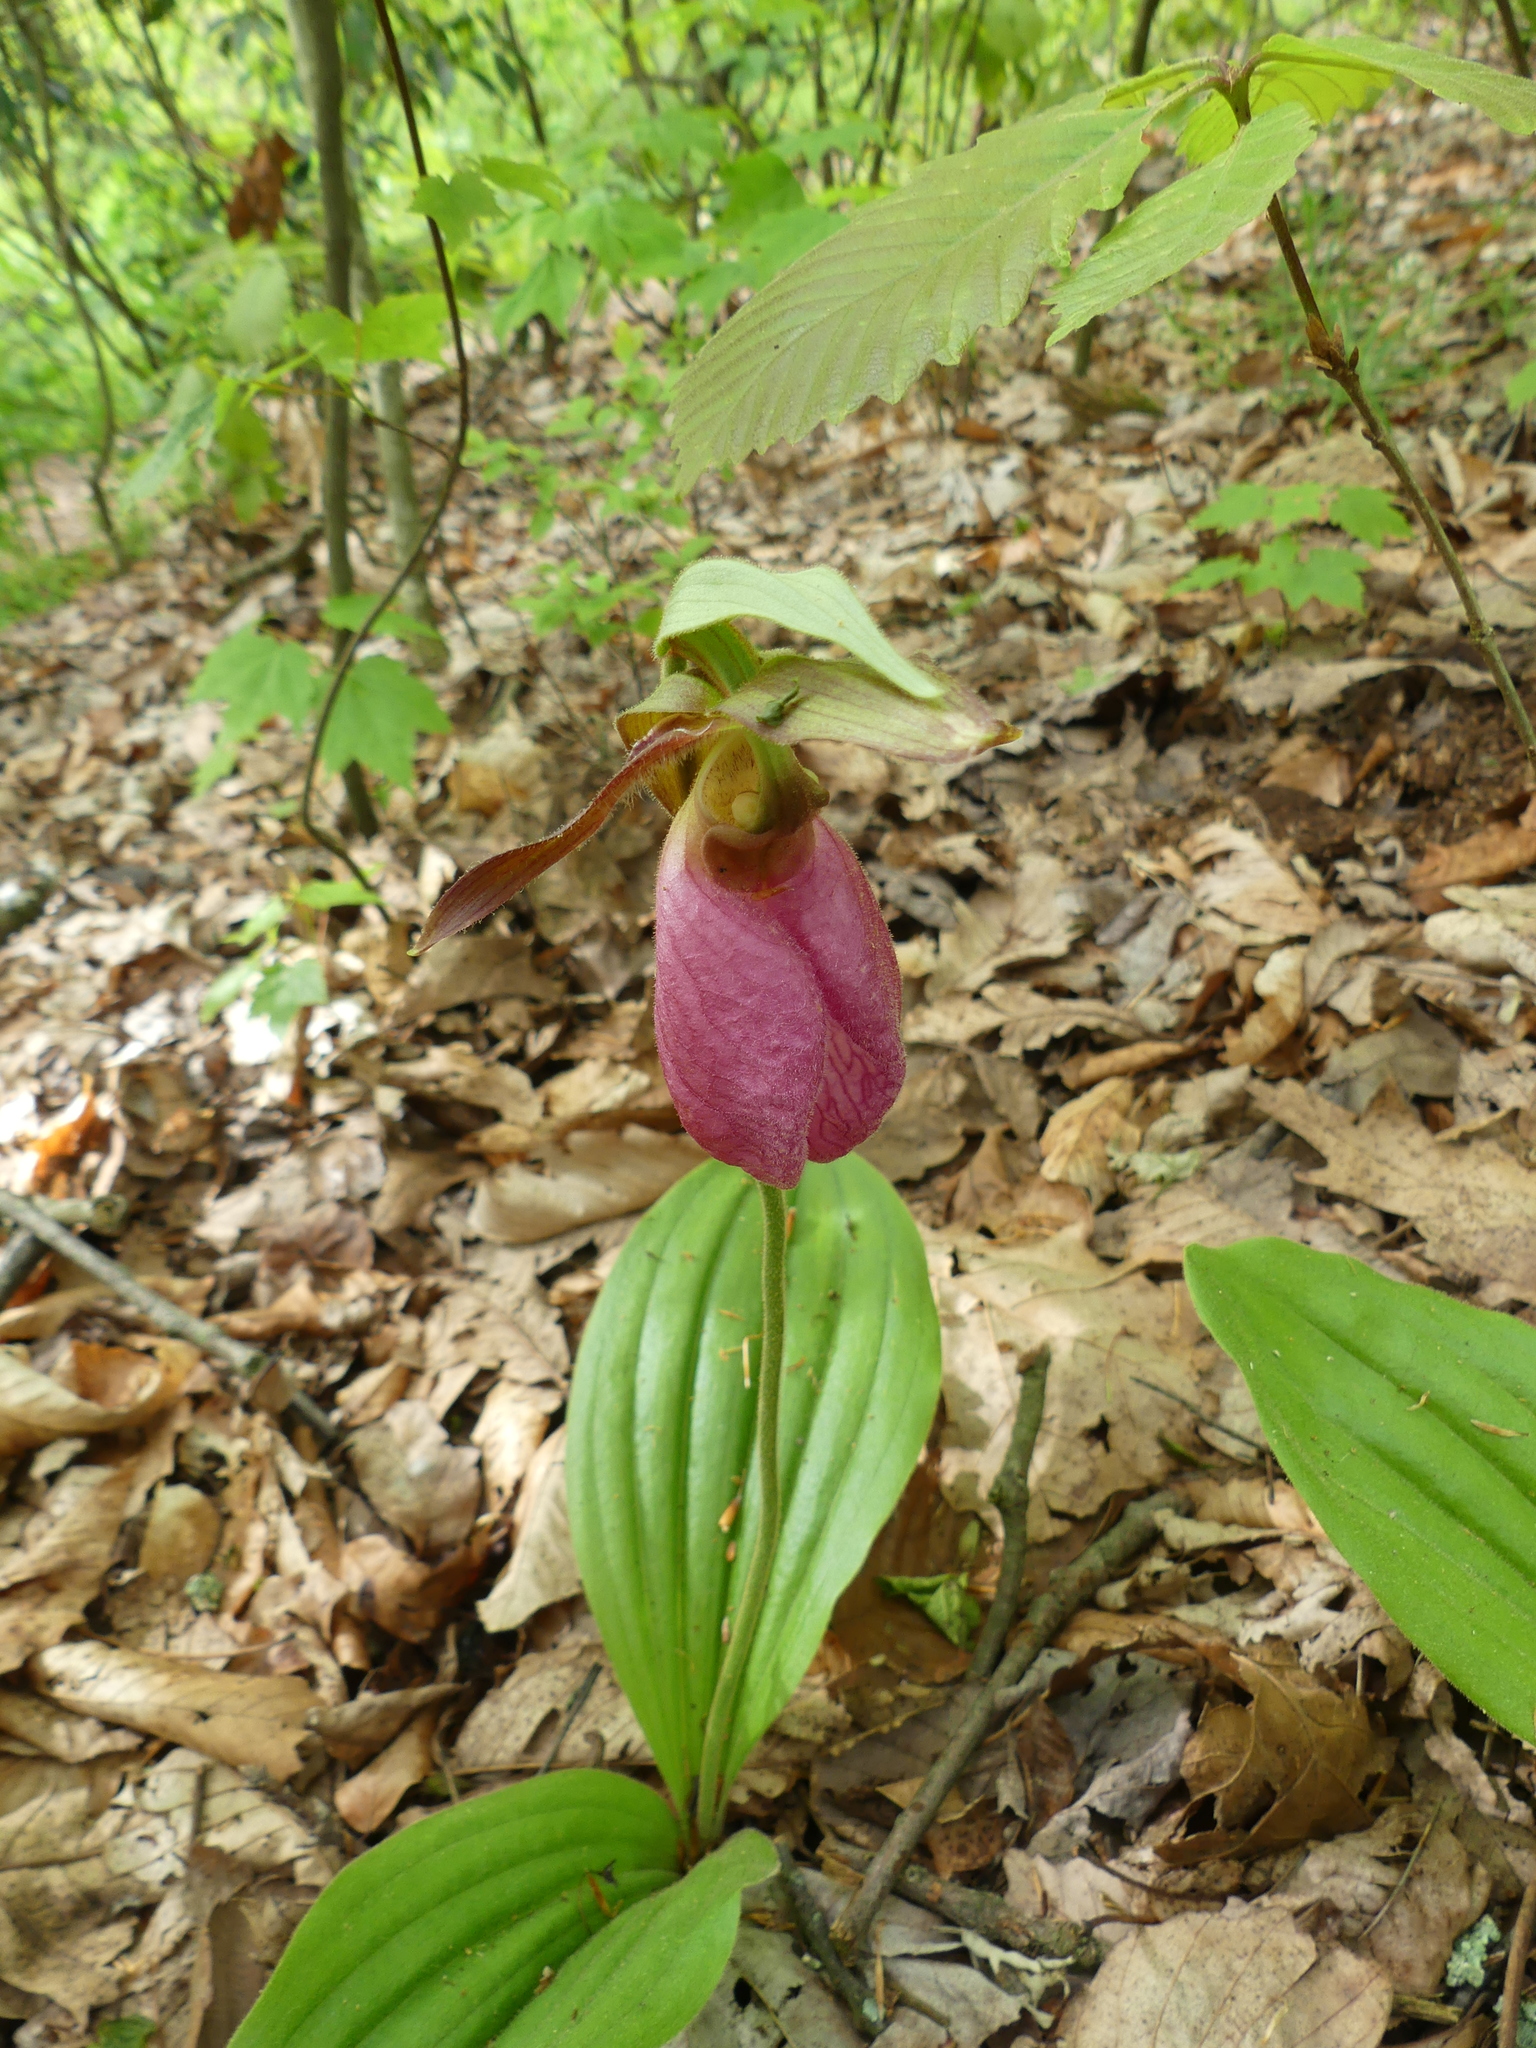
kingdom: Plantae
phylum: Tracheophyta
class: Liliopsida
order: Asparagales
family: Orchidaceae
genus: Cypripedium
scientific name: Cypripedium acaule
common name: Pink lady's-slipper
